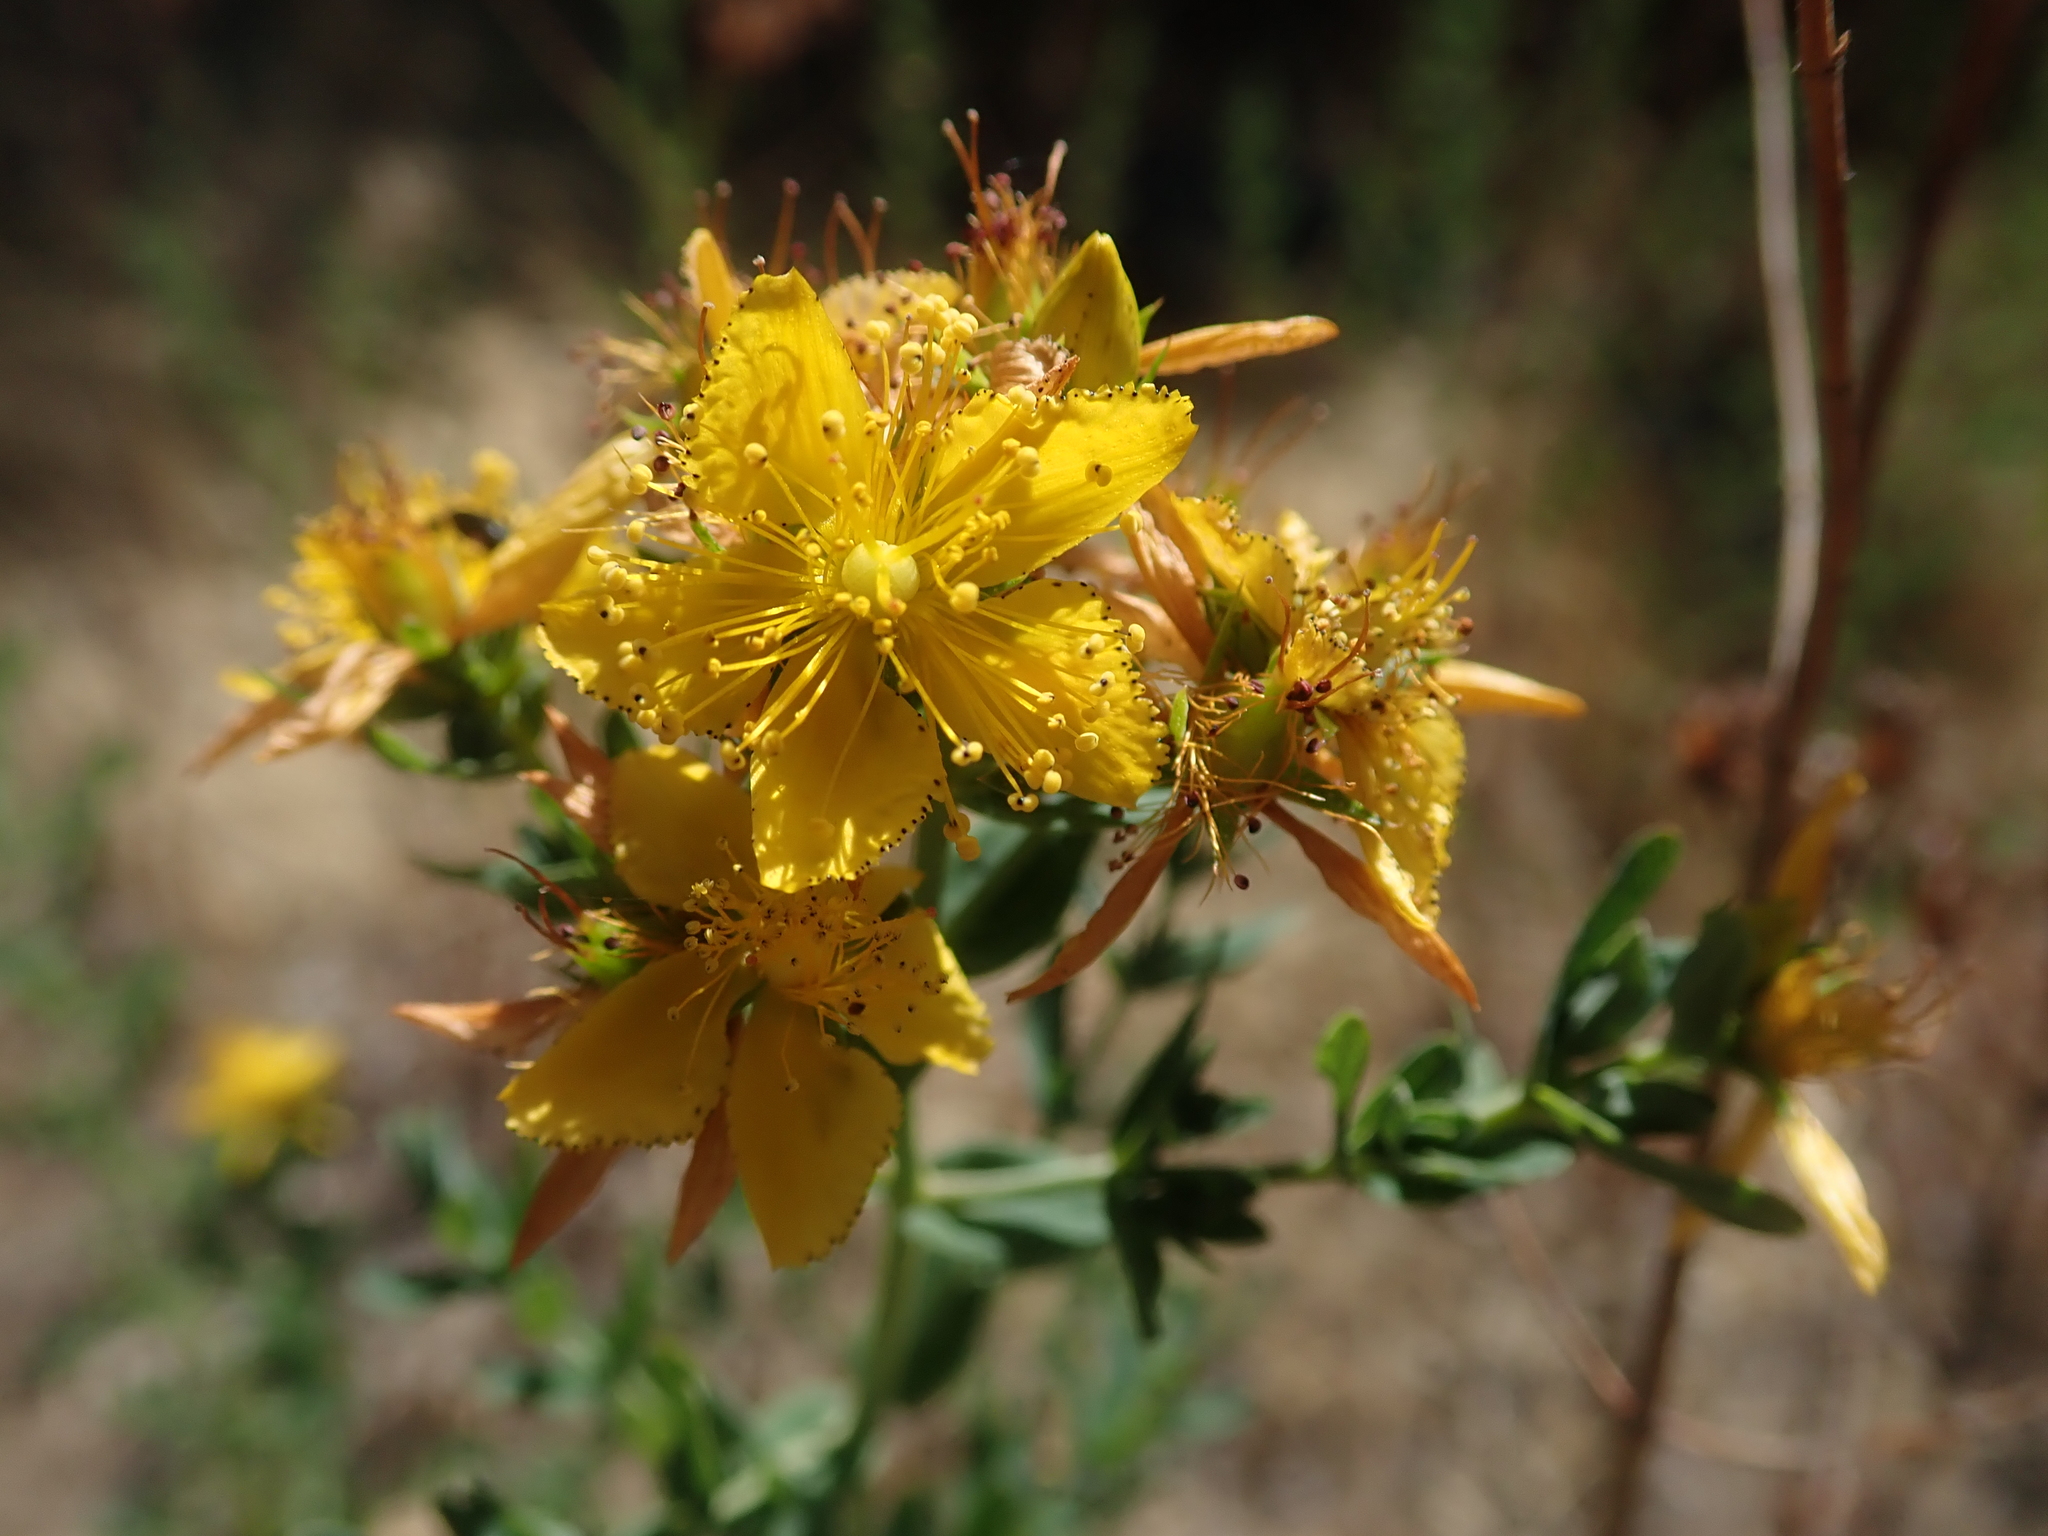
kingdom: Plantae
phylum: Tracheophyta
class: Magnoliopsida
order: Malpighiales
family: Hypericaceae
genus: Hypericum
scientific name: Hypericum perforatum
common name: Common st. johnswort
